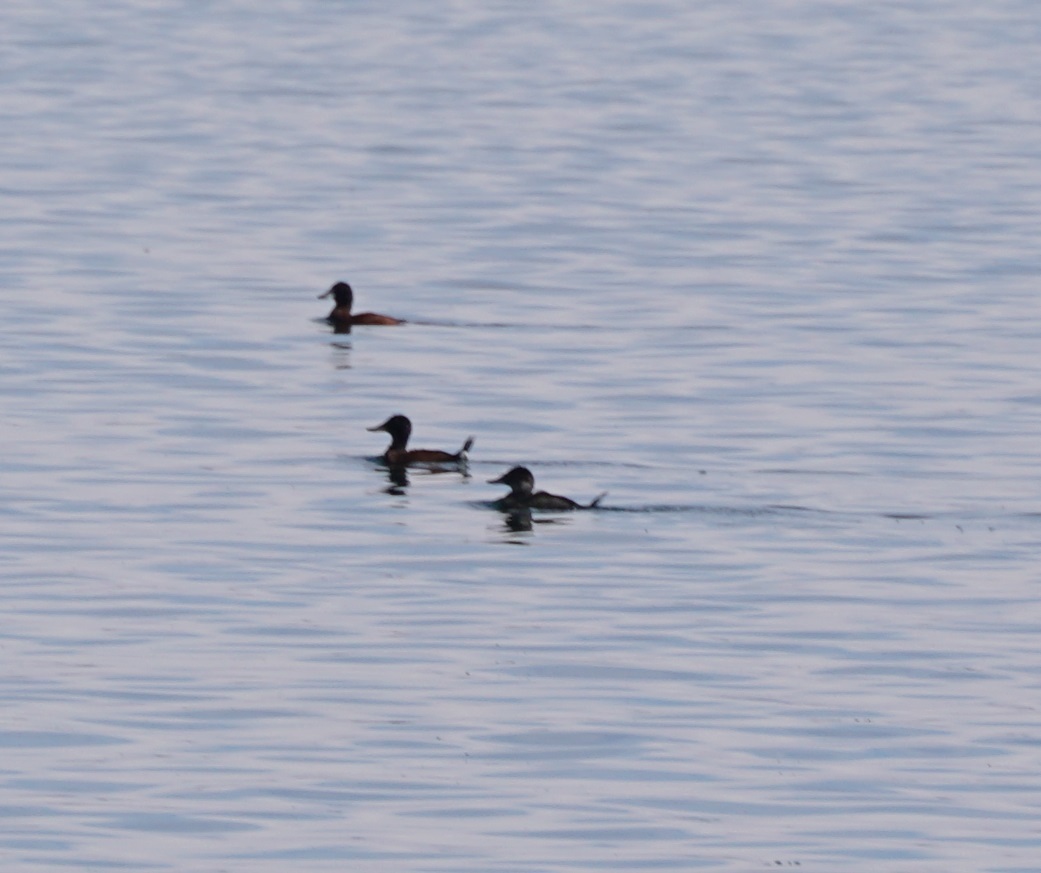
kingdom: Animalia
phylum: Chordata
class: Aves
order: Anseriformes
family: Anatidae
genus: Oxyura
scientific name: Oxyura ferruginea
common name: Andean duck
